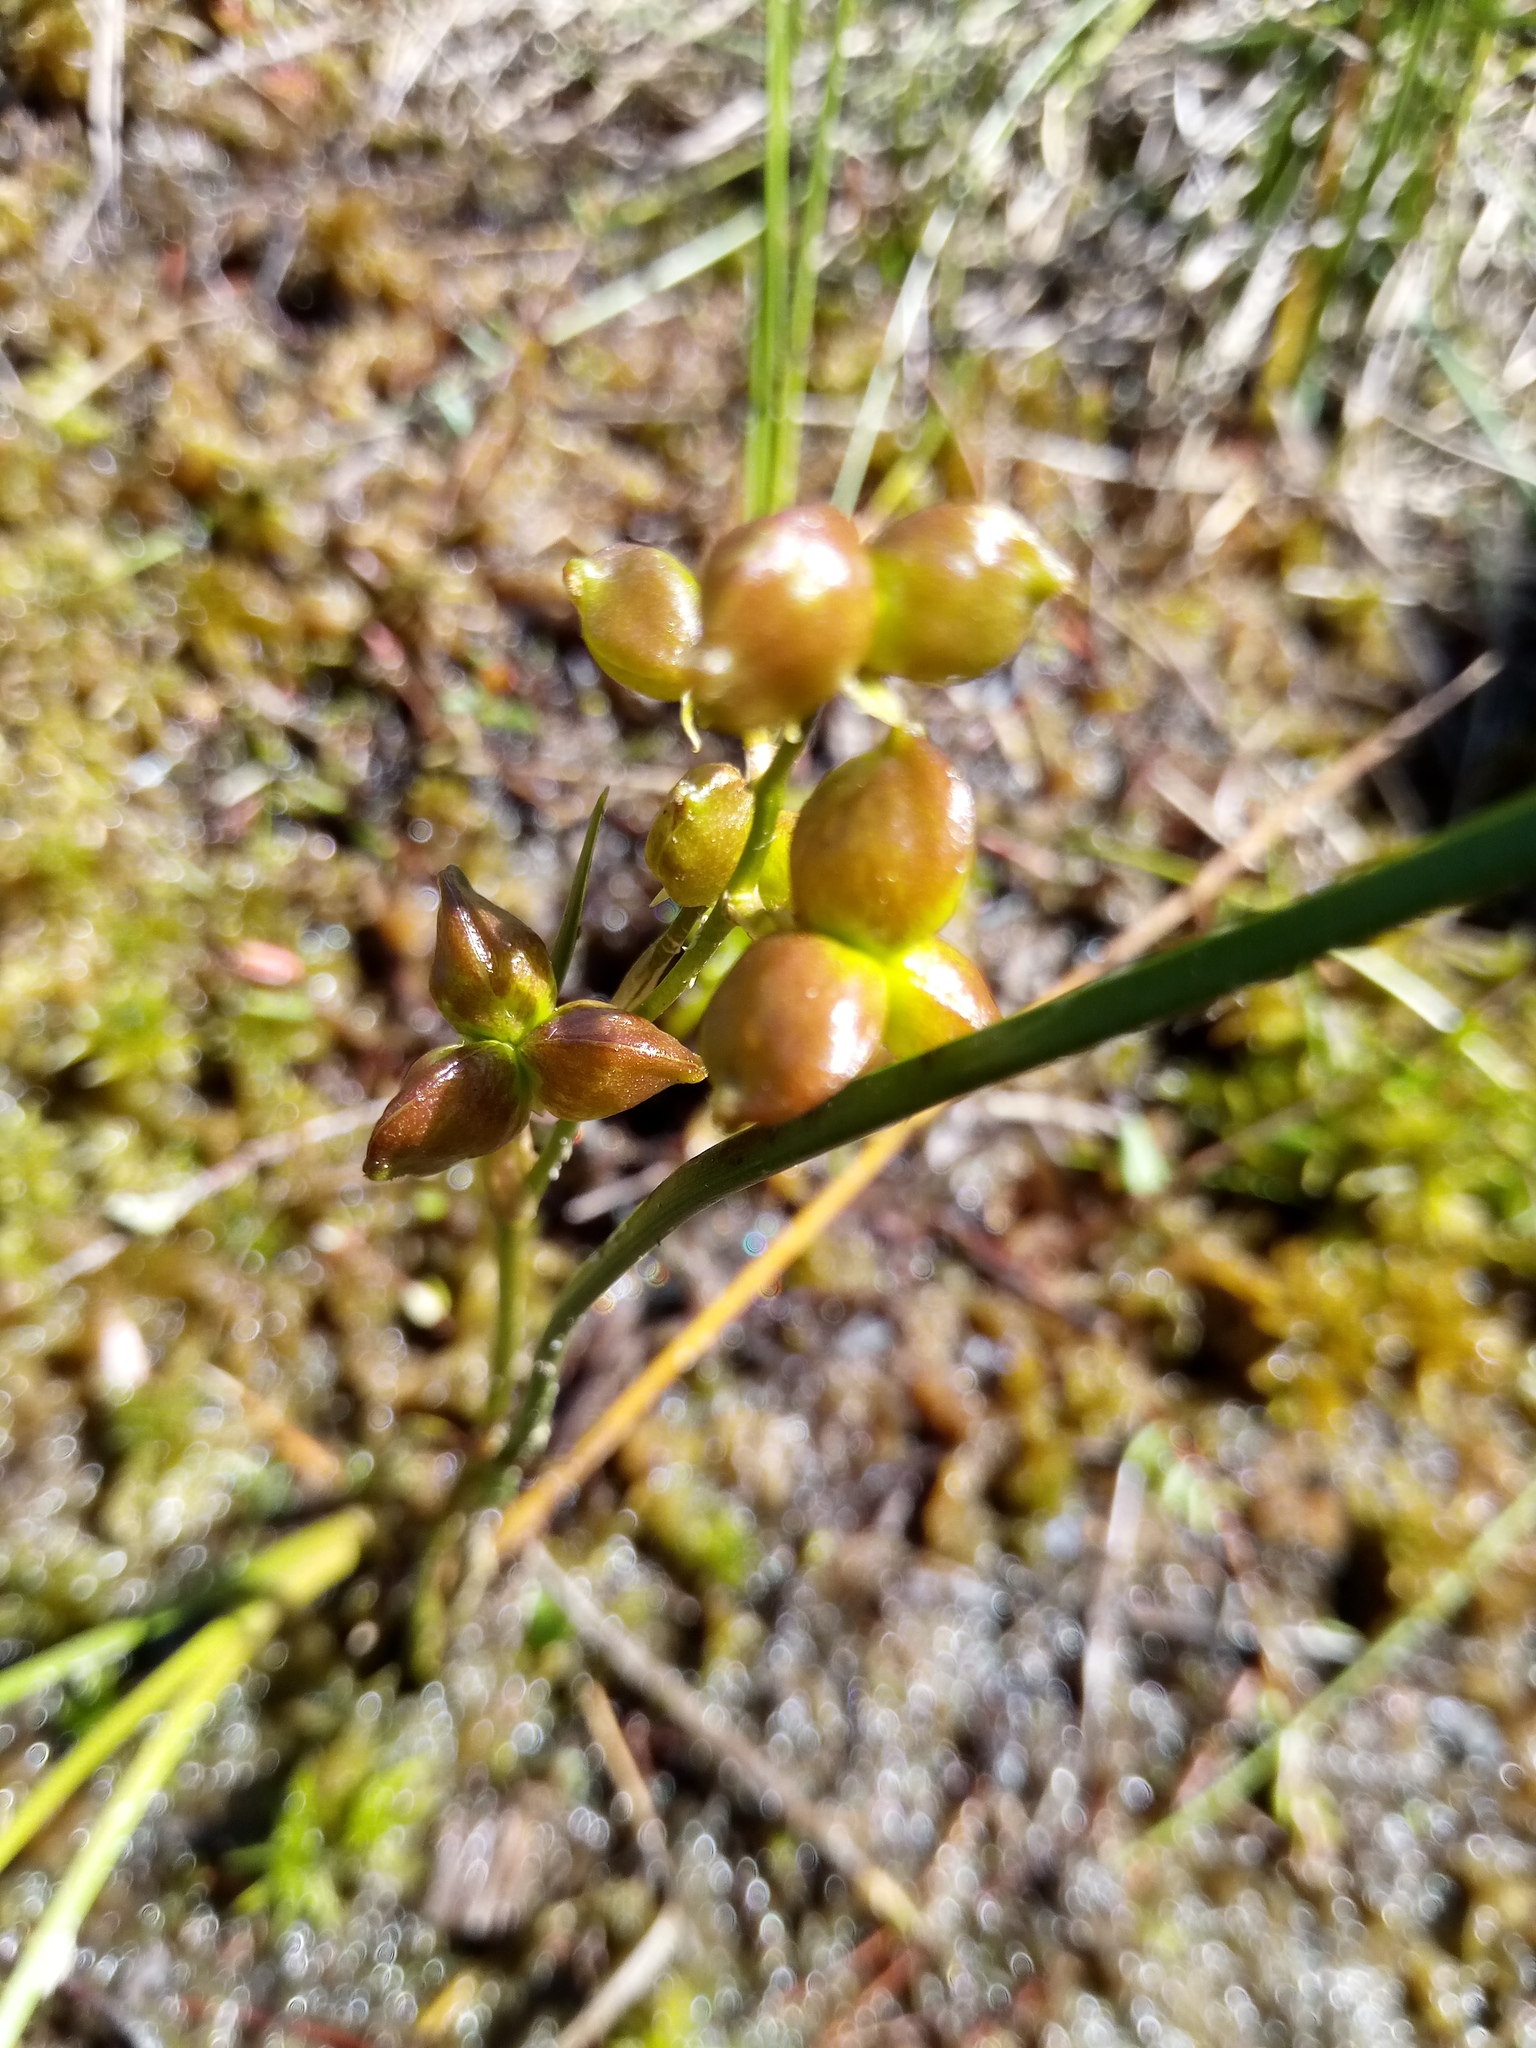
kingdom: Plantae
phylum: Tracheophyta
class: Liliopsida
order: Alismatales
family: Scheuchzeriaceae
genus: Scheuchzeria
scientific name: Scheuchzeria palustris
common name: Rannoch-rush
